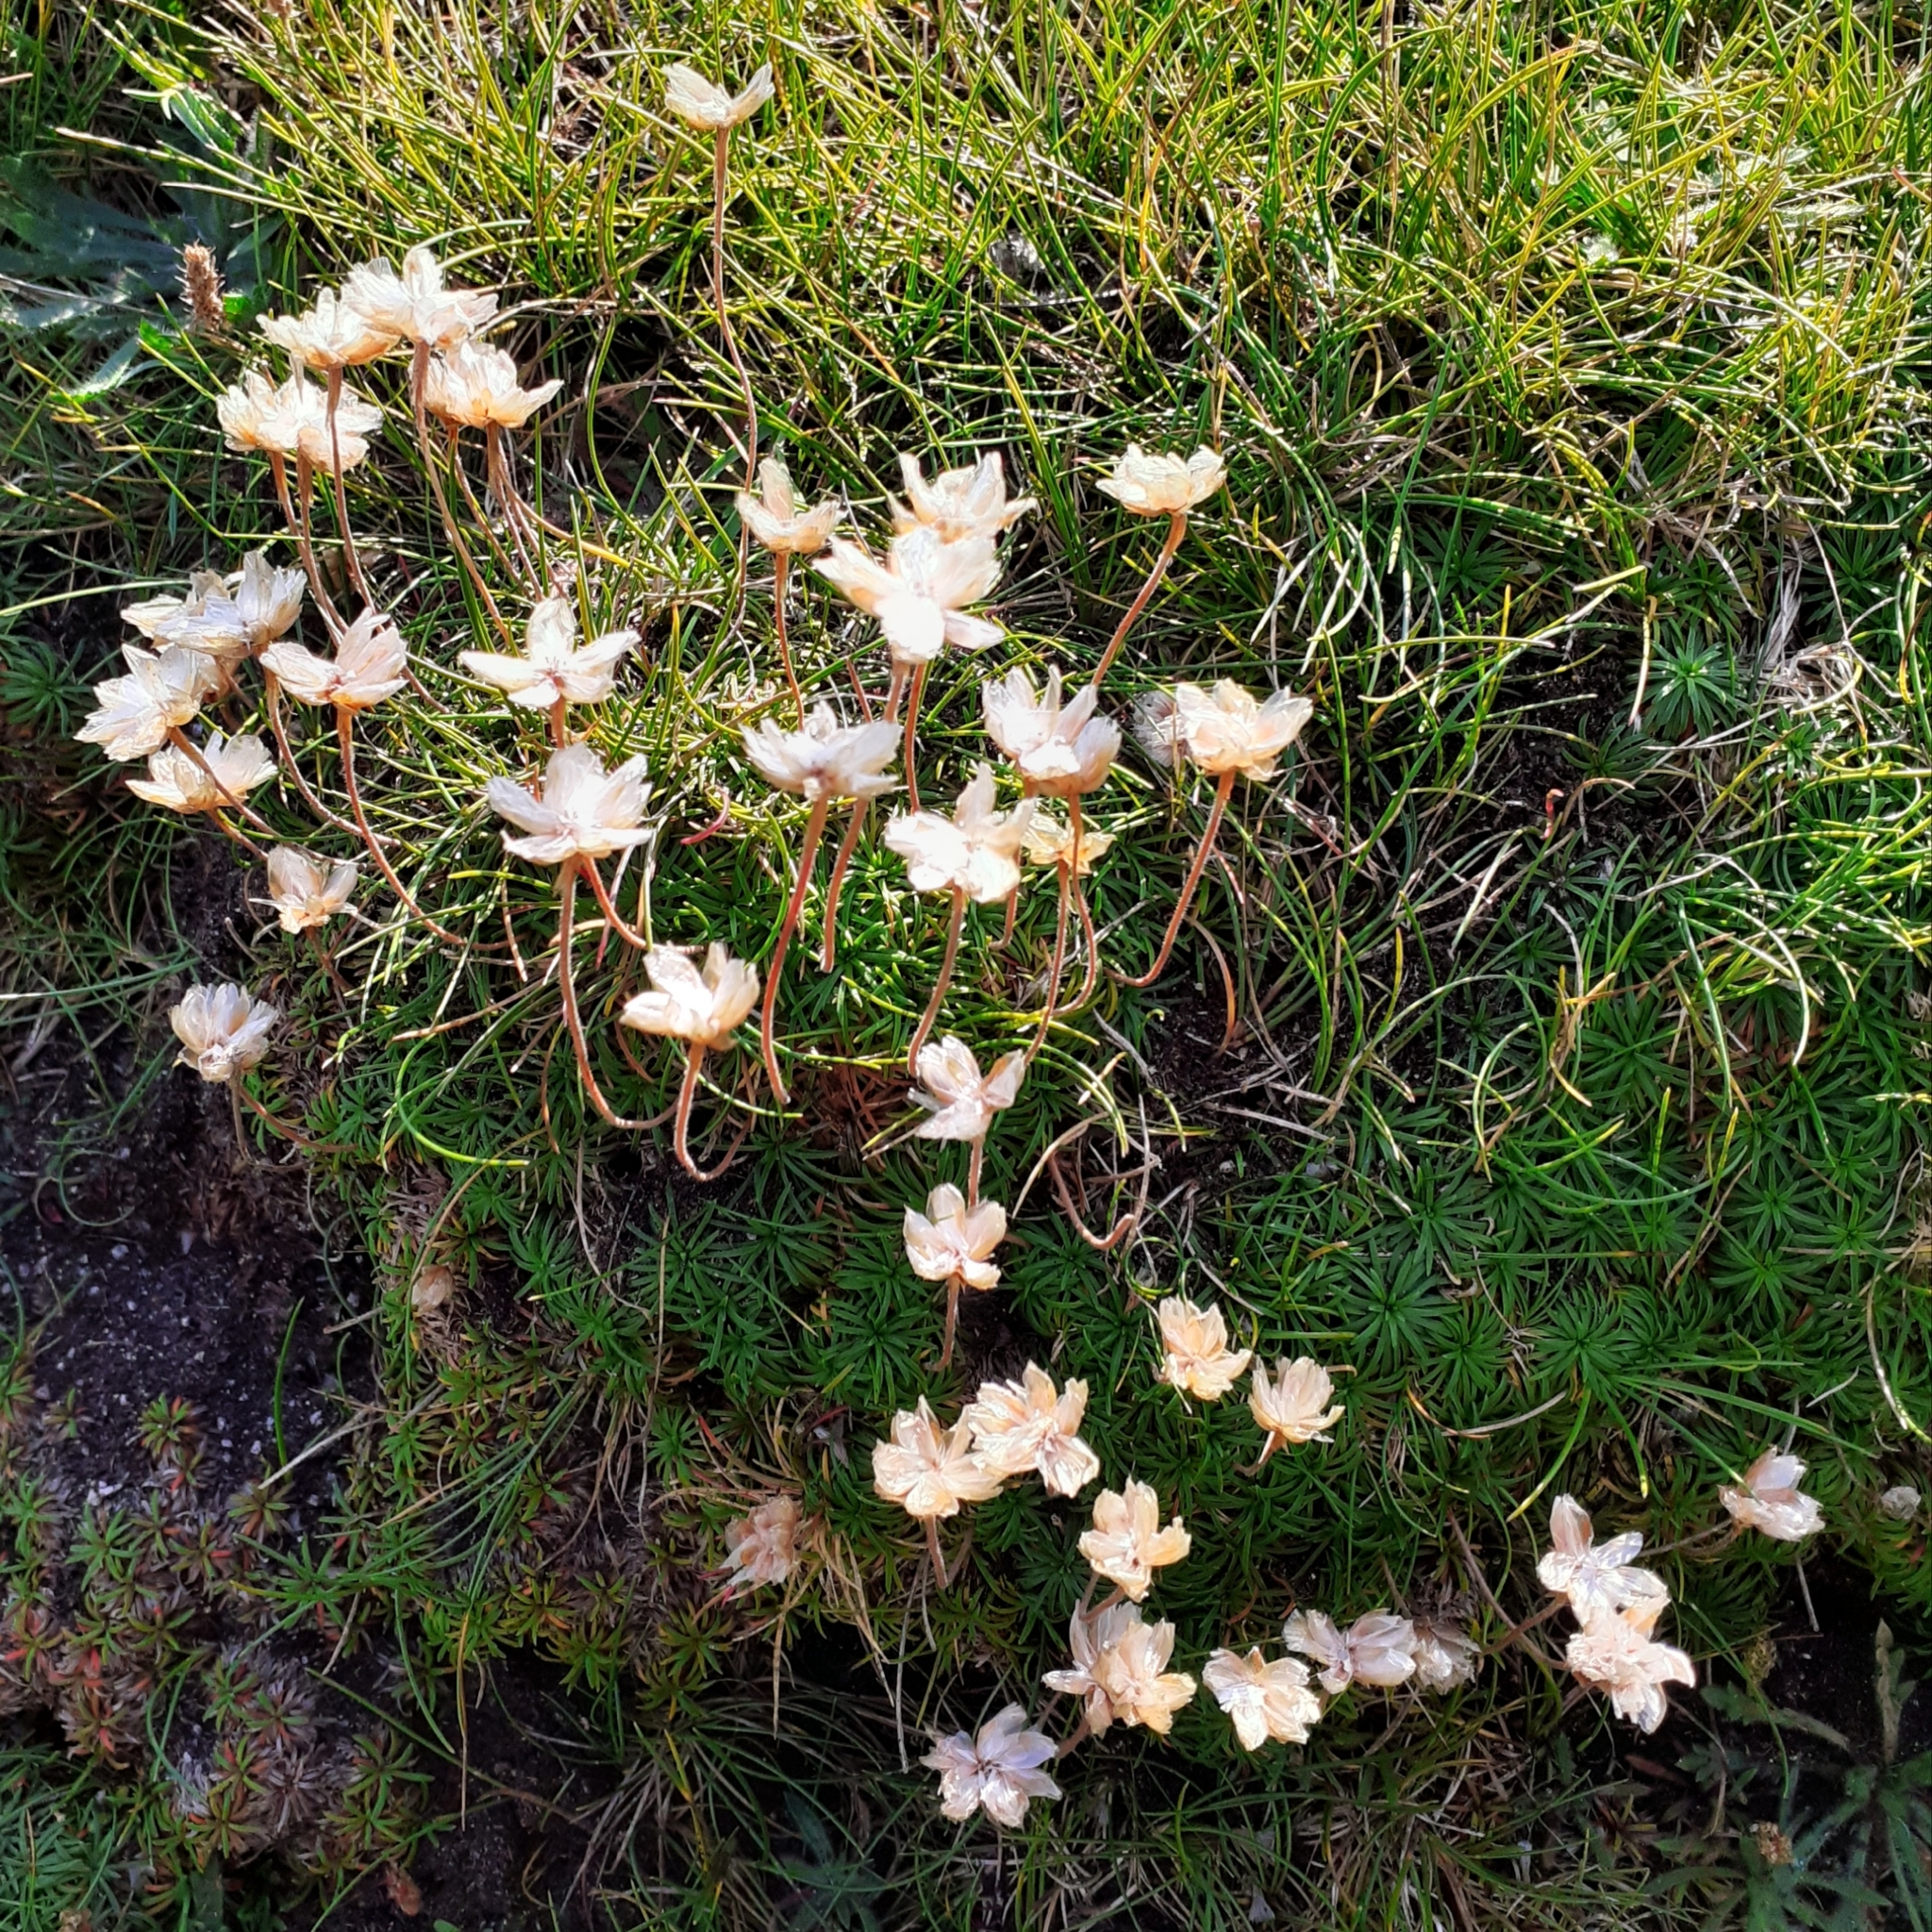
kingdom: Plantae
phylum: Tracheophyta
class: Magnoliopsida
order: Caryophyllales
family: Plumbaginaceae
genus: Armeria
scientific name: Armeria maritima
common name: Thrift
